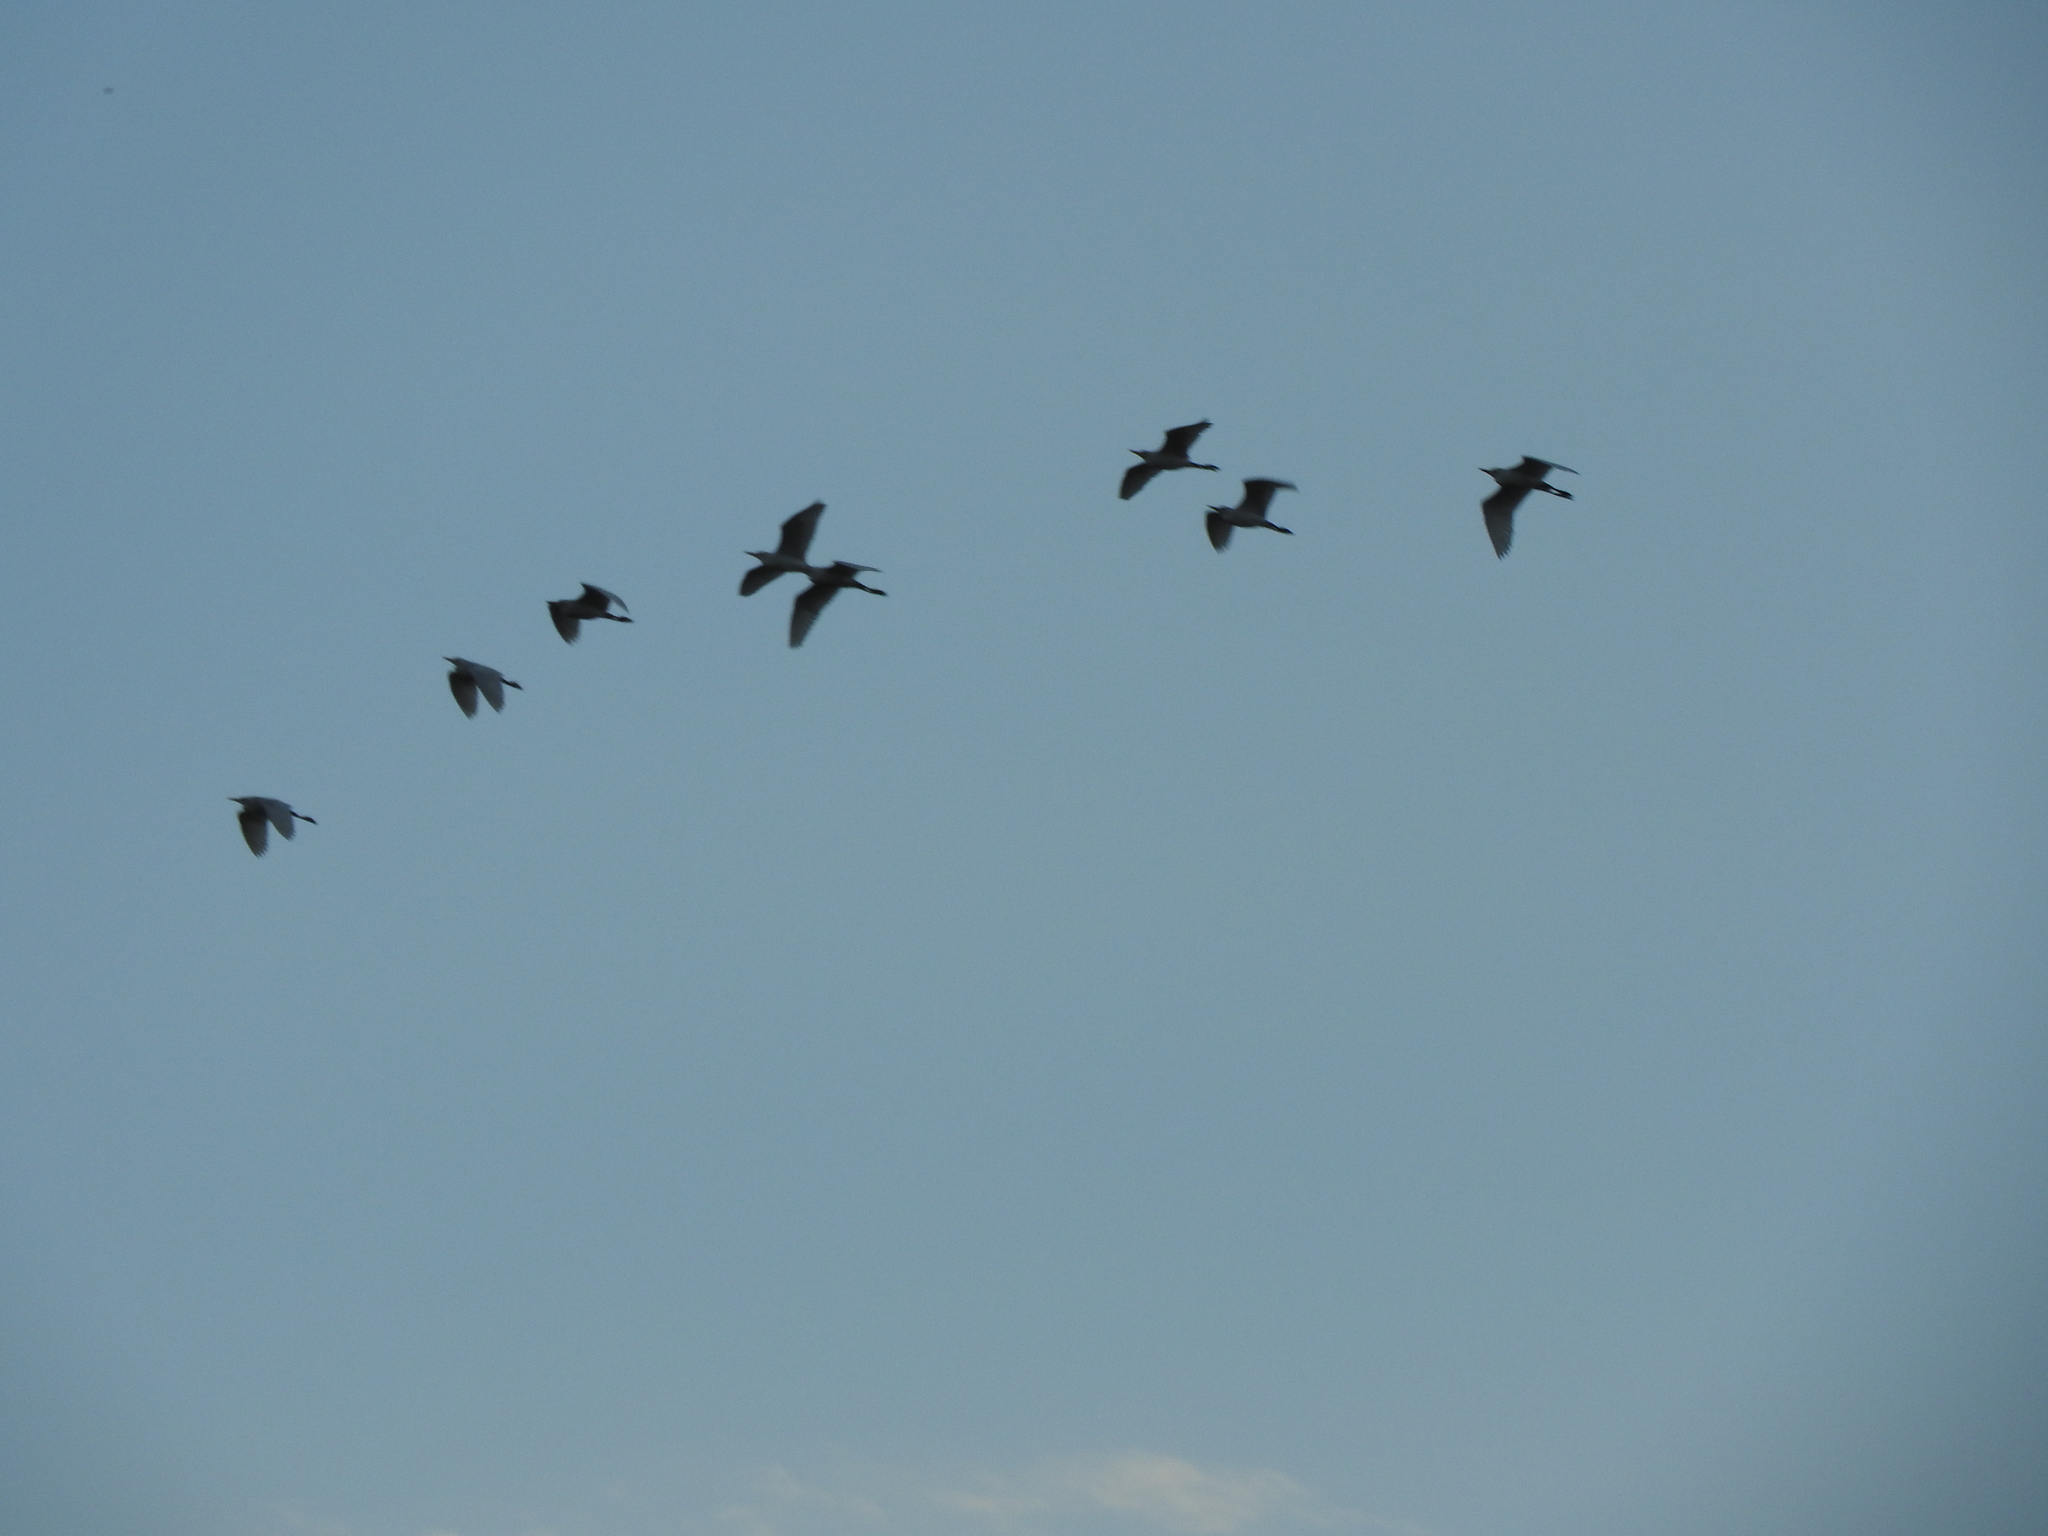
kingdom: Animalia
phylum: Chordata
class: Aves
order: Pelecaniformes
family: Ardeidae
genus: Bubulcus
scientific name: Bubulcus ibis
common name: Cattle egret
